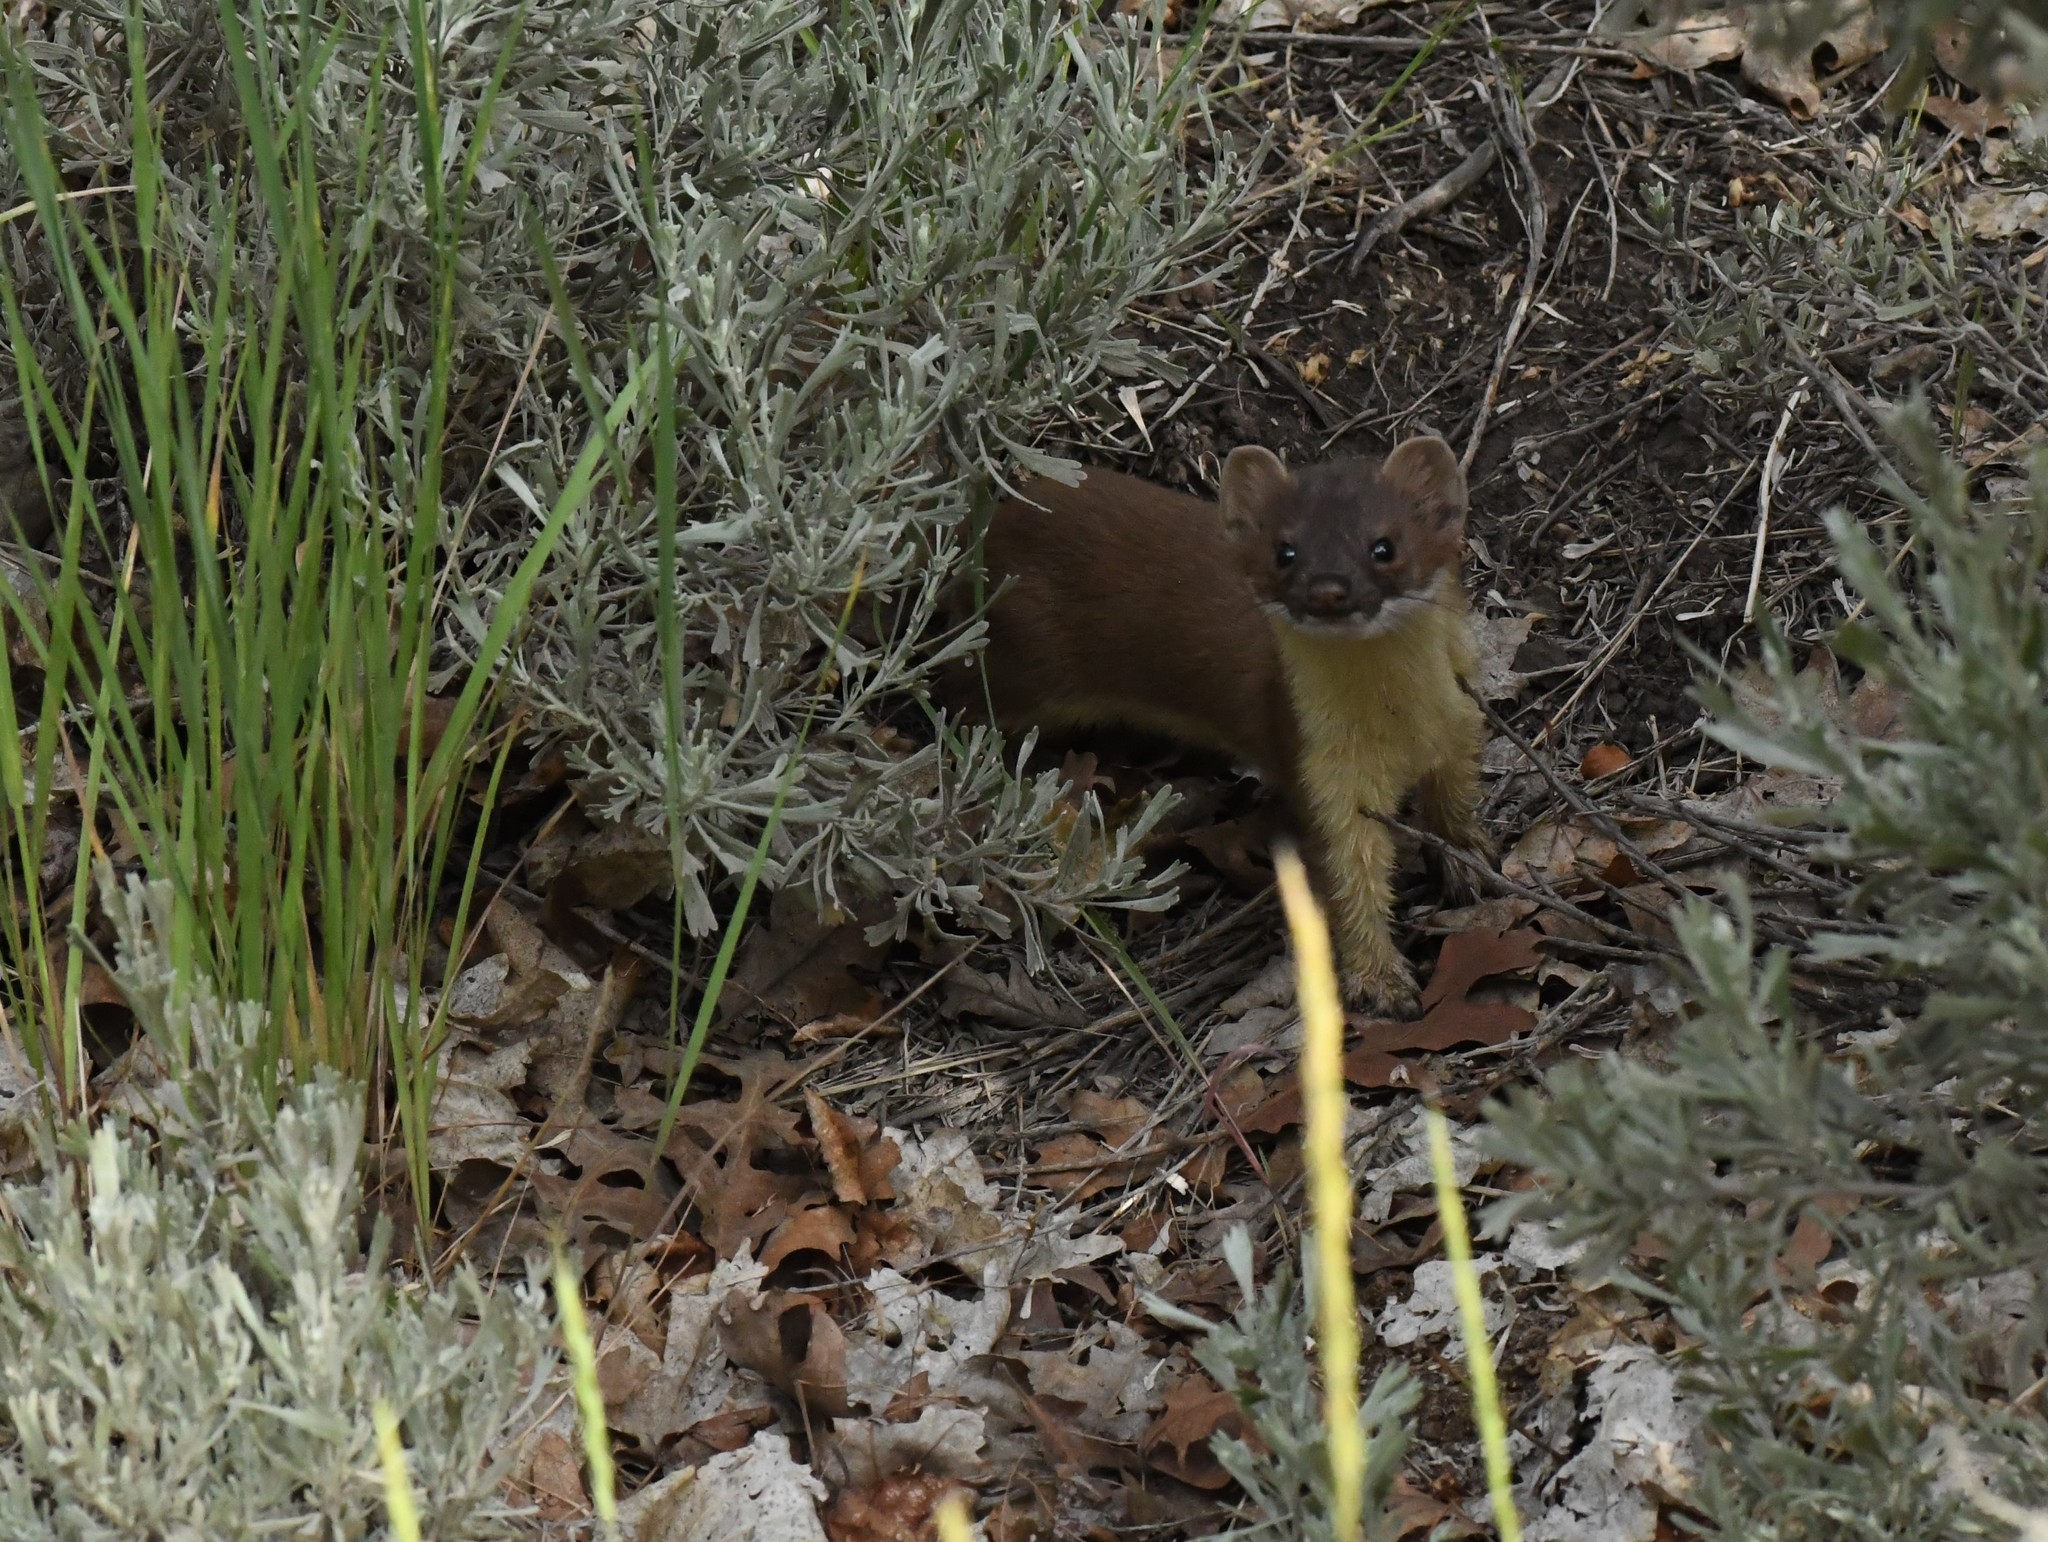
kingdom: Animalia
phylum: Chordata
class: Mammalia
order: Carnivora
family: Mustelidae
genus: Mustela
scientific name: Mustela
